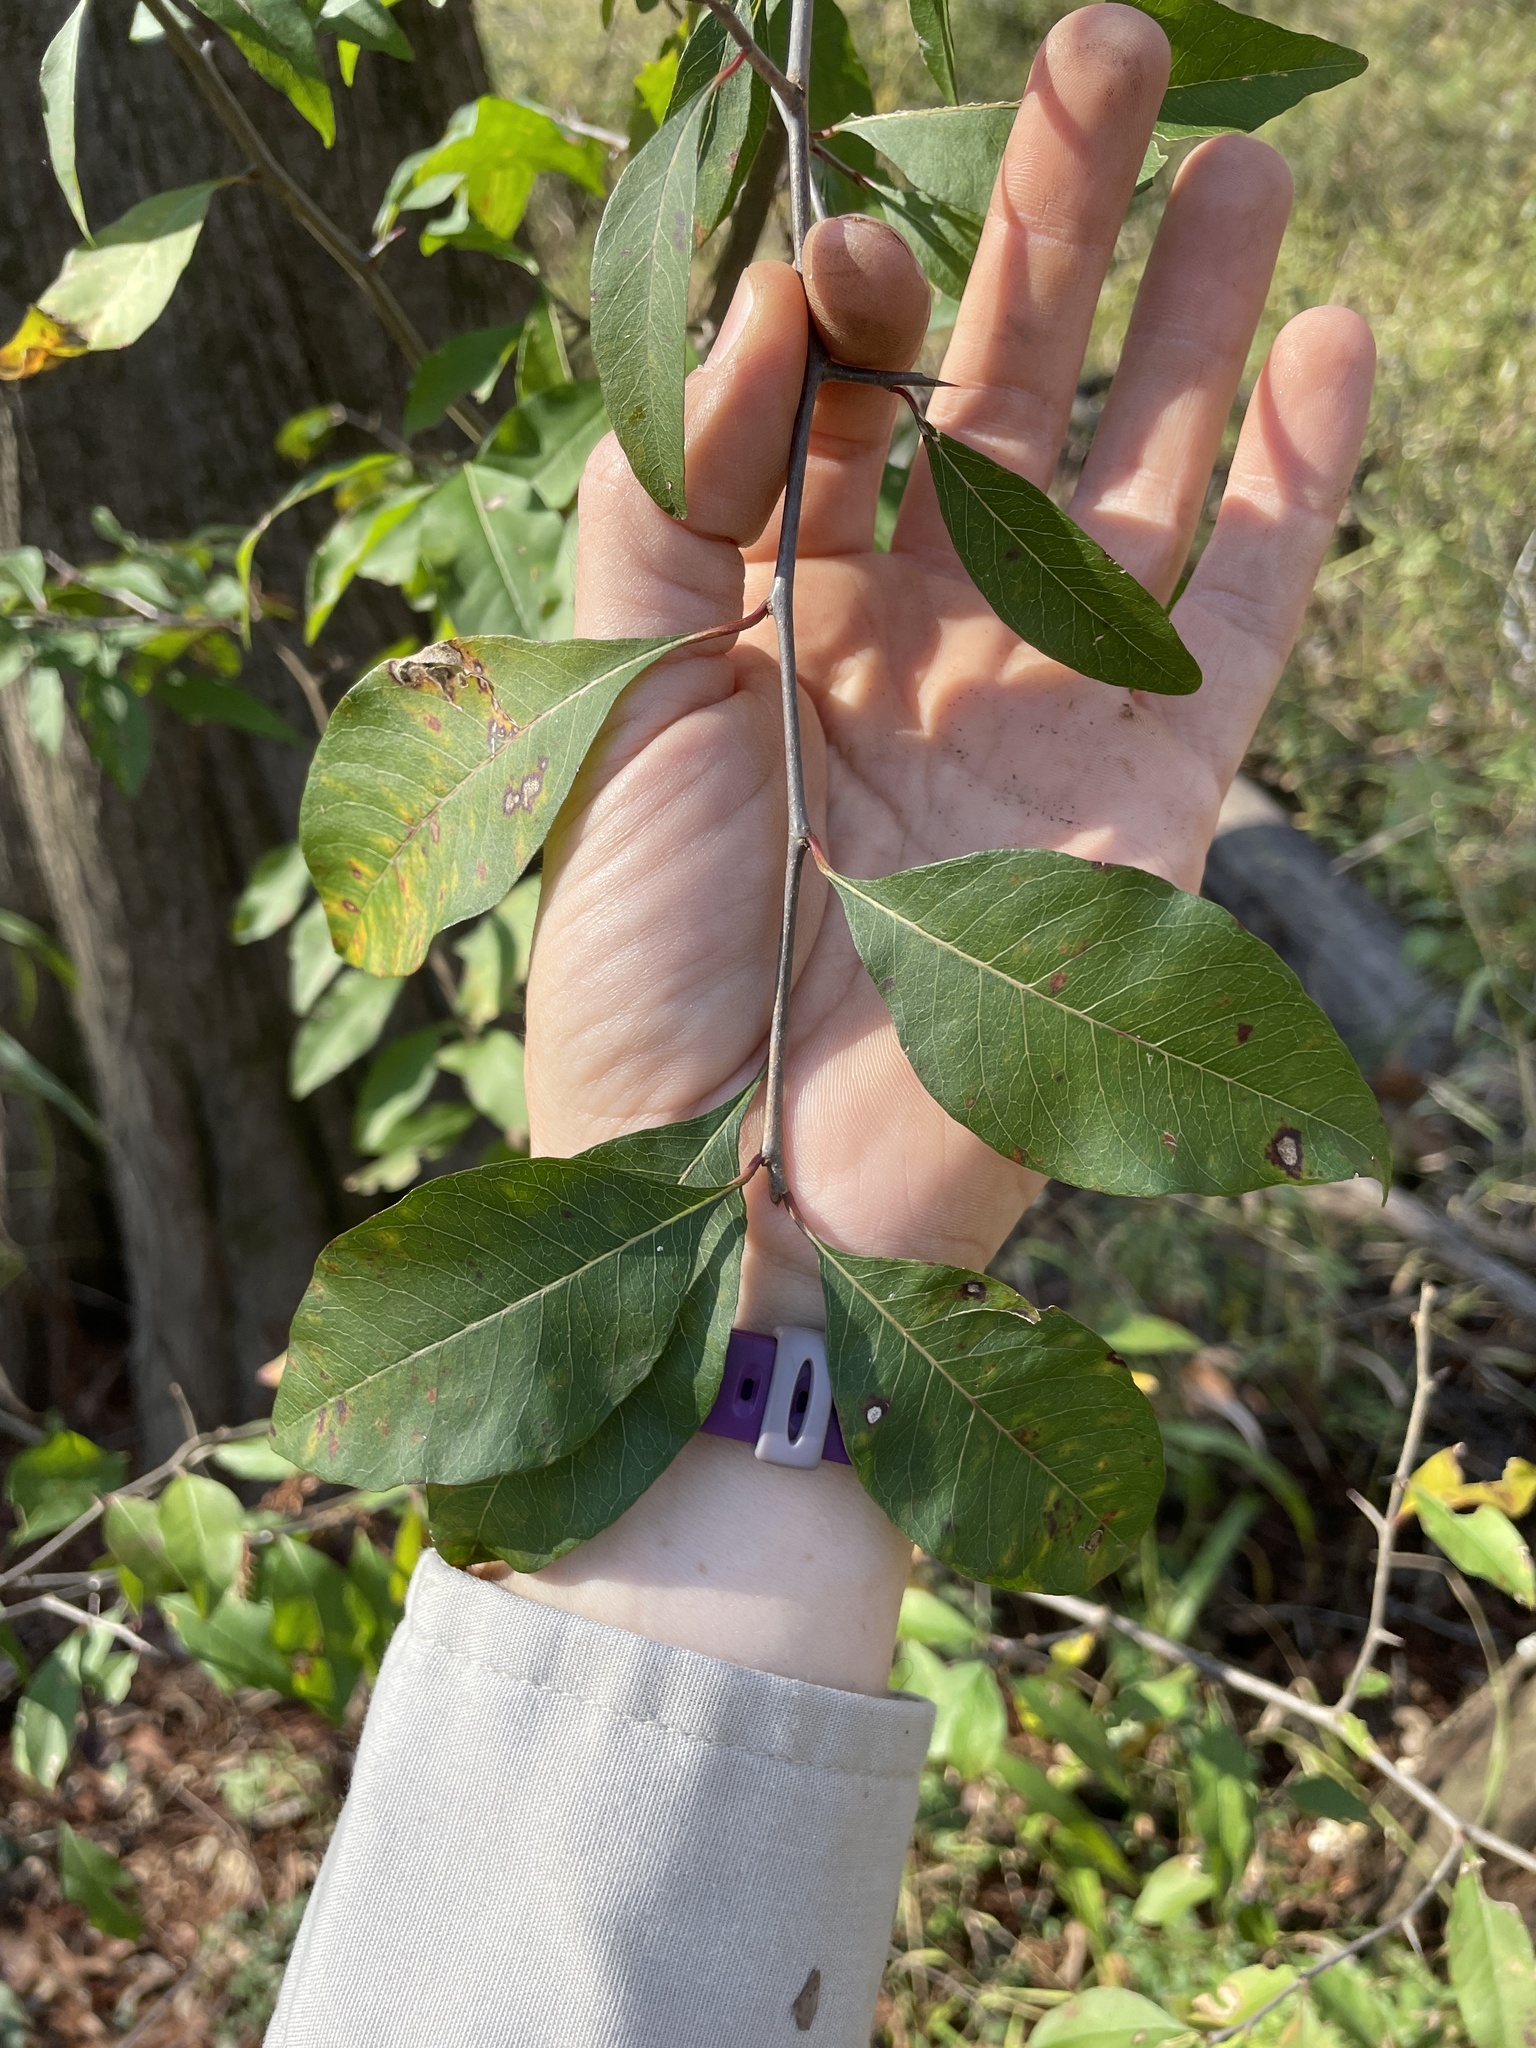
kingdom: Plantae
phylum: Tracheophyta
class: Magnoliopsida
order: Ericales
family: Sapotaceae
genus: Sideroxylon
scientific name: Sideroxylon lycioides
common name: Buckthorn bumelia
